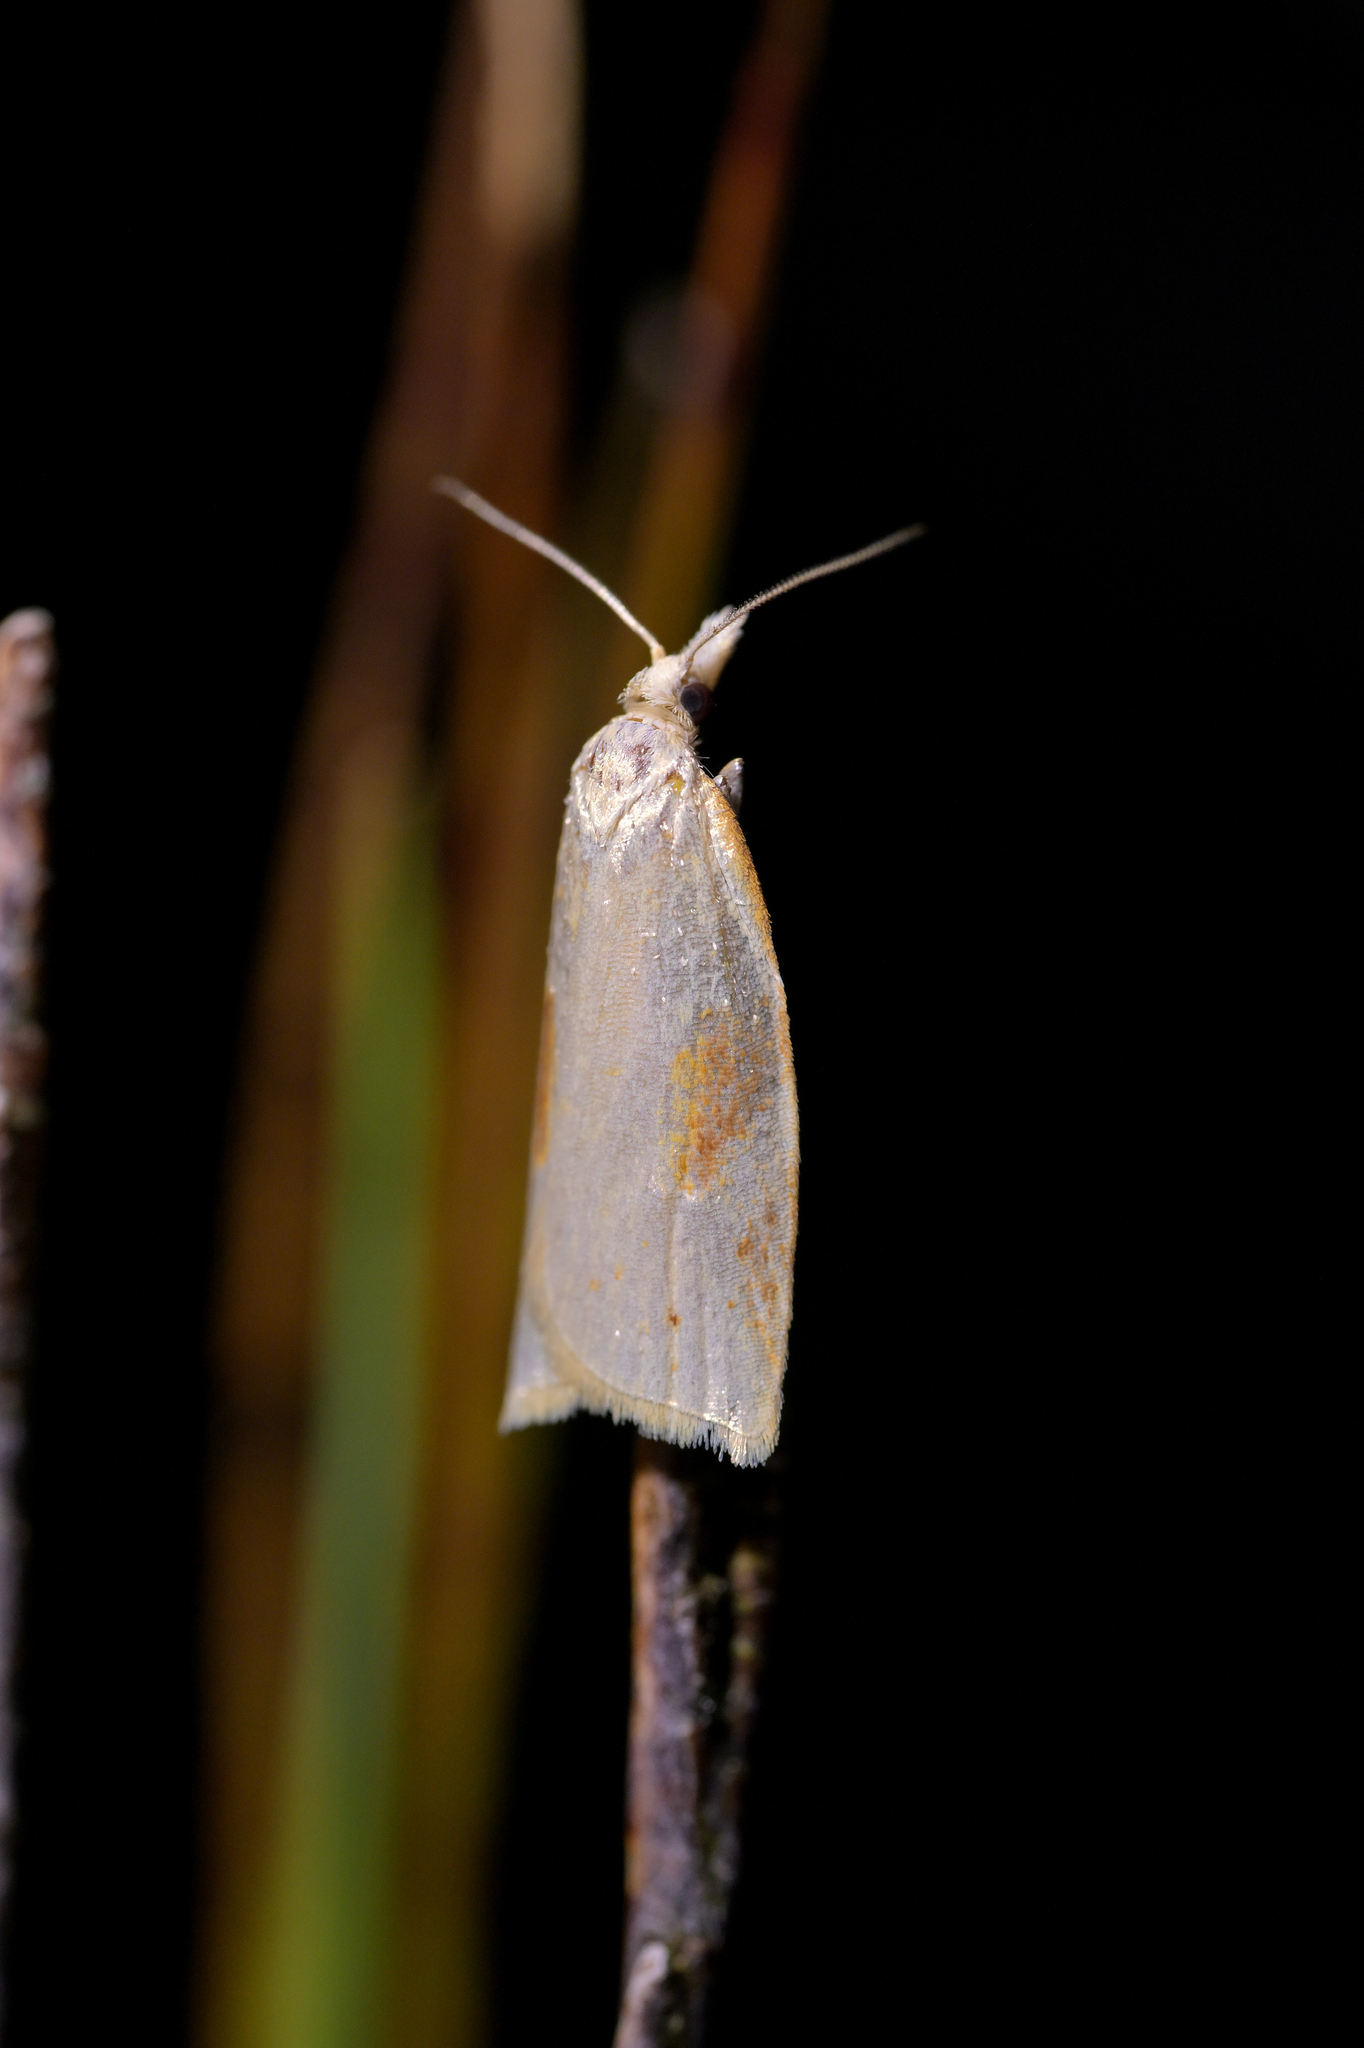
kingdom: Animalia
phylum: Arthropoda
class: Insecta
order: Lepidoptera
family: Tortricidae
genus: Apoctena
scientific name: Apoctena conditana
